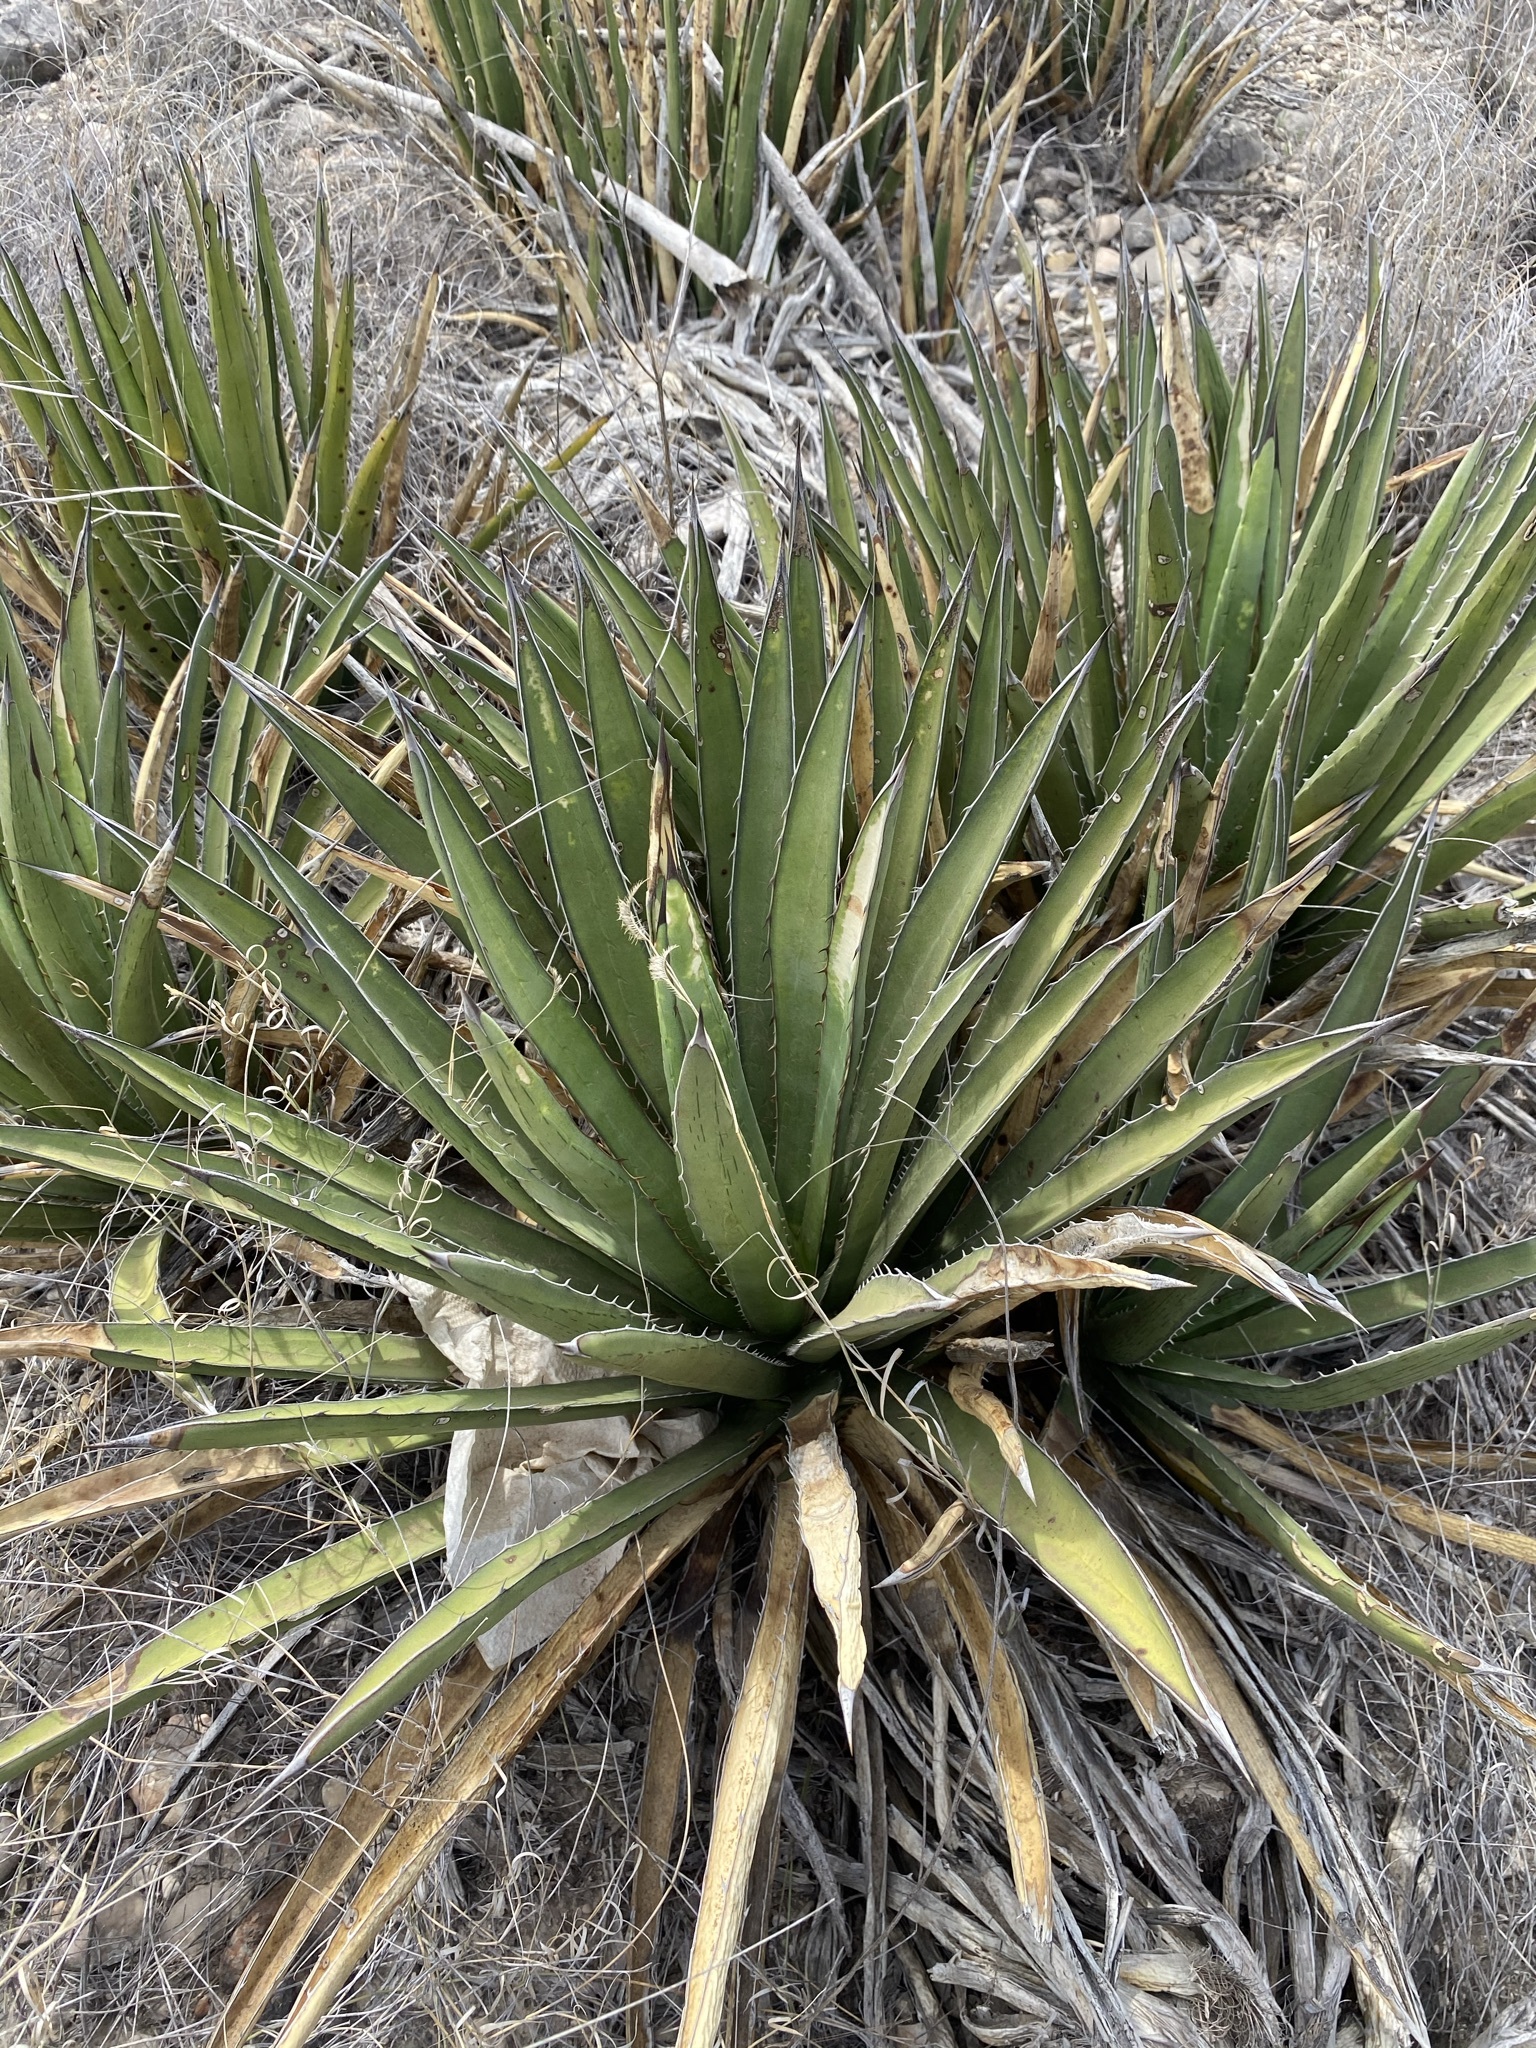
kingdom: Plantae
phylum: Tracheophyta
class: Liliopsida
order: Asparagales
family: Asparagaceae
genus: Agave
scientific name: Agave lechuguilla
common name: Lecheguilla agave
